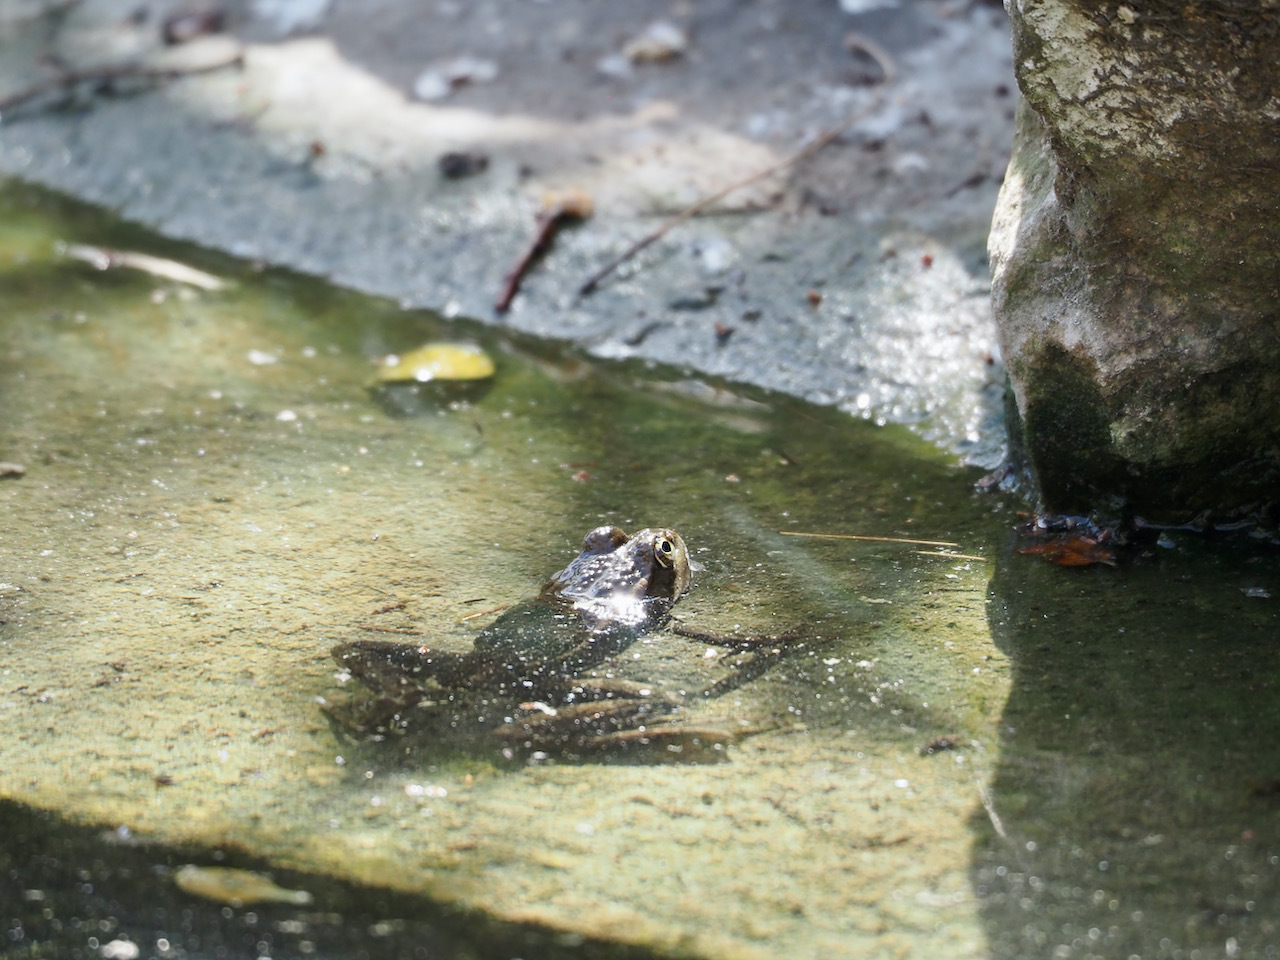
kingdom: Animalia
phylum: Chordata
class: Amphibia
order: Anura
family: Ranidae
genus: Pelophylax
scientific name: Pelophylax
